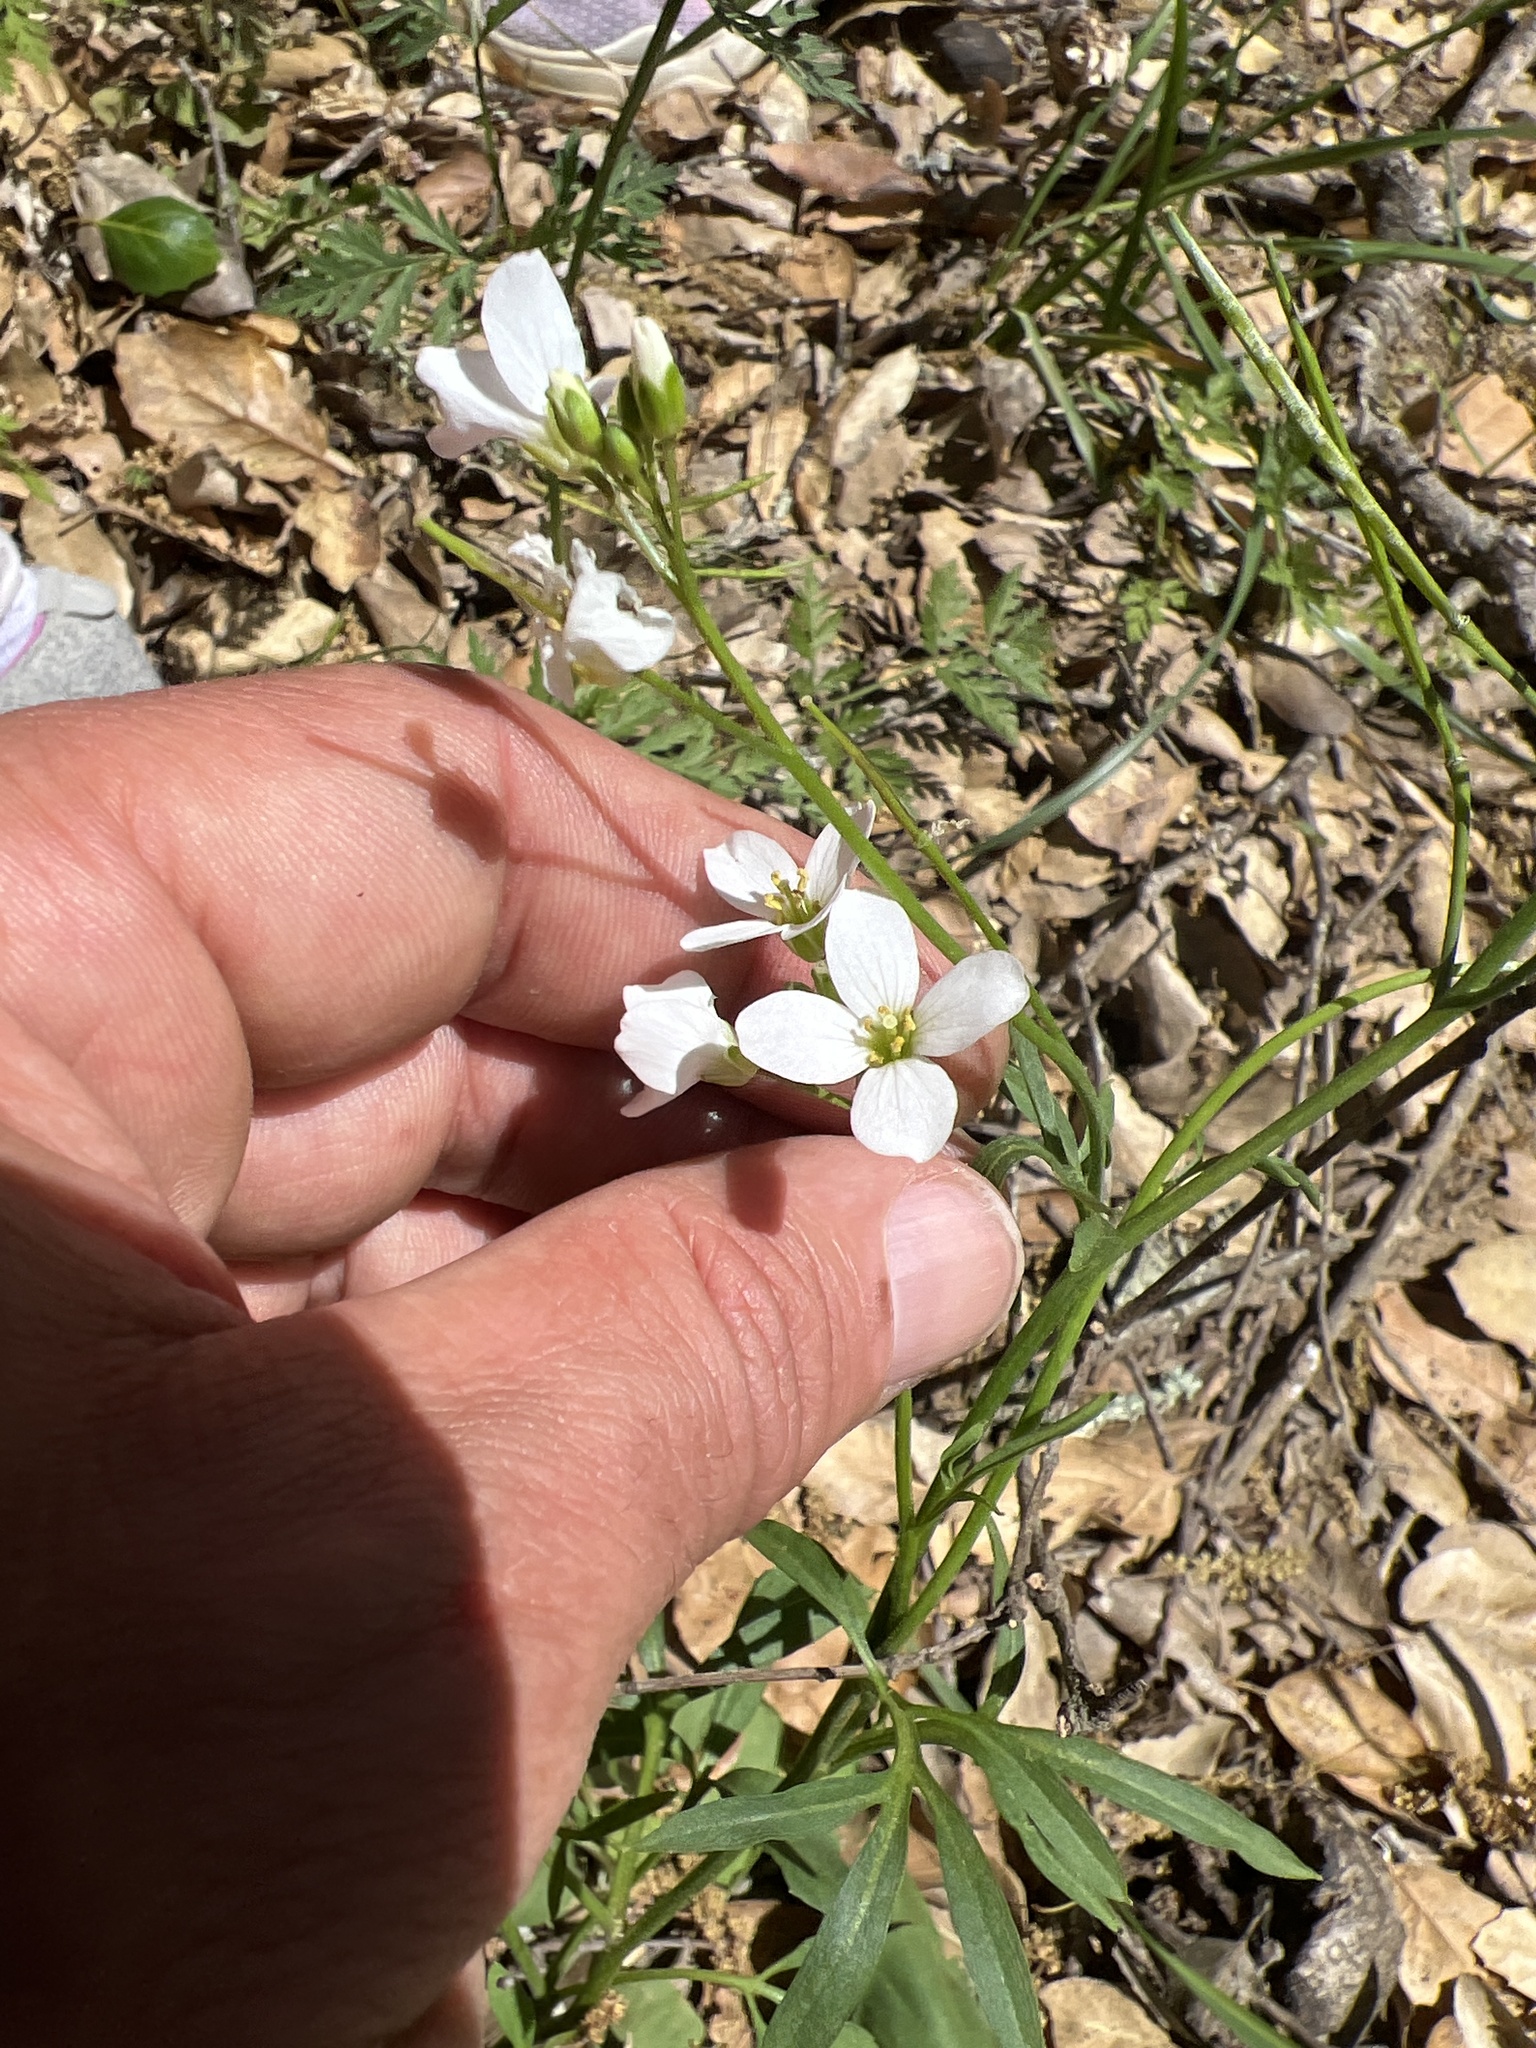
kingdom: Plantae
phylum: Tracheophyta
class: Magnoliopsida
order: Brassicales
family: Brassicaceae
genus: Cardamine
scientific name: Cardamine californica
